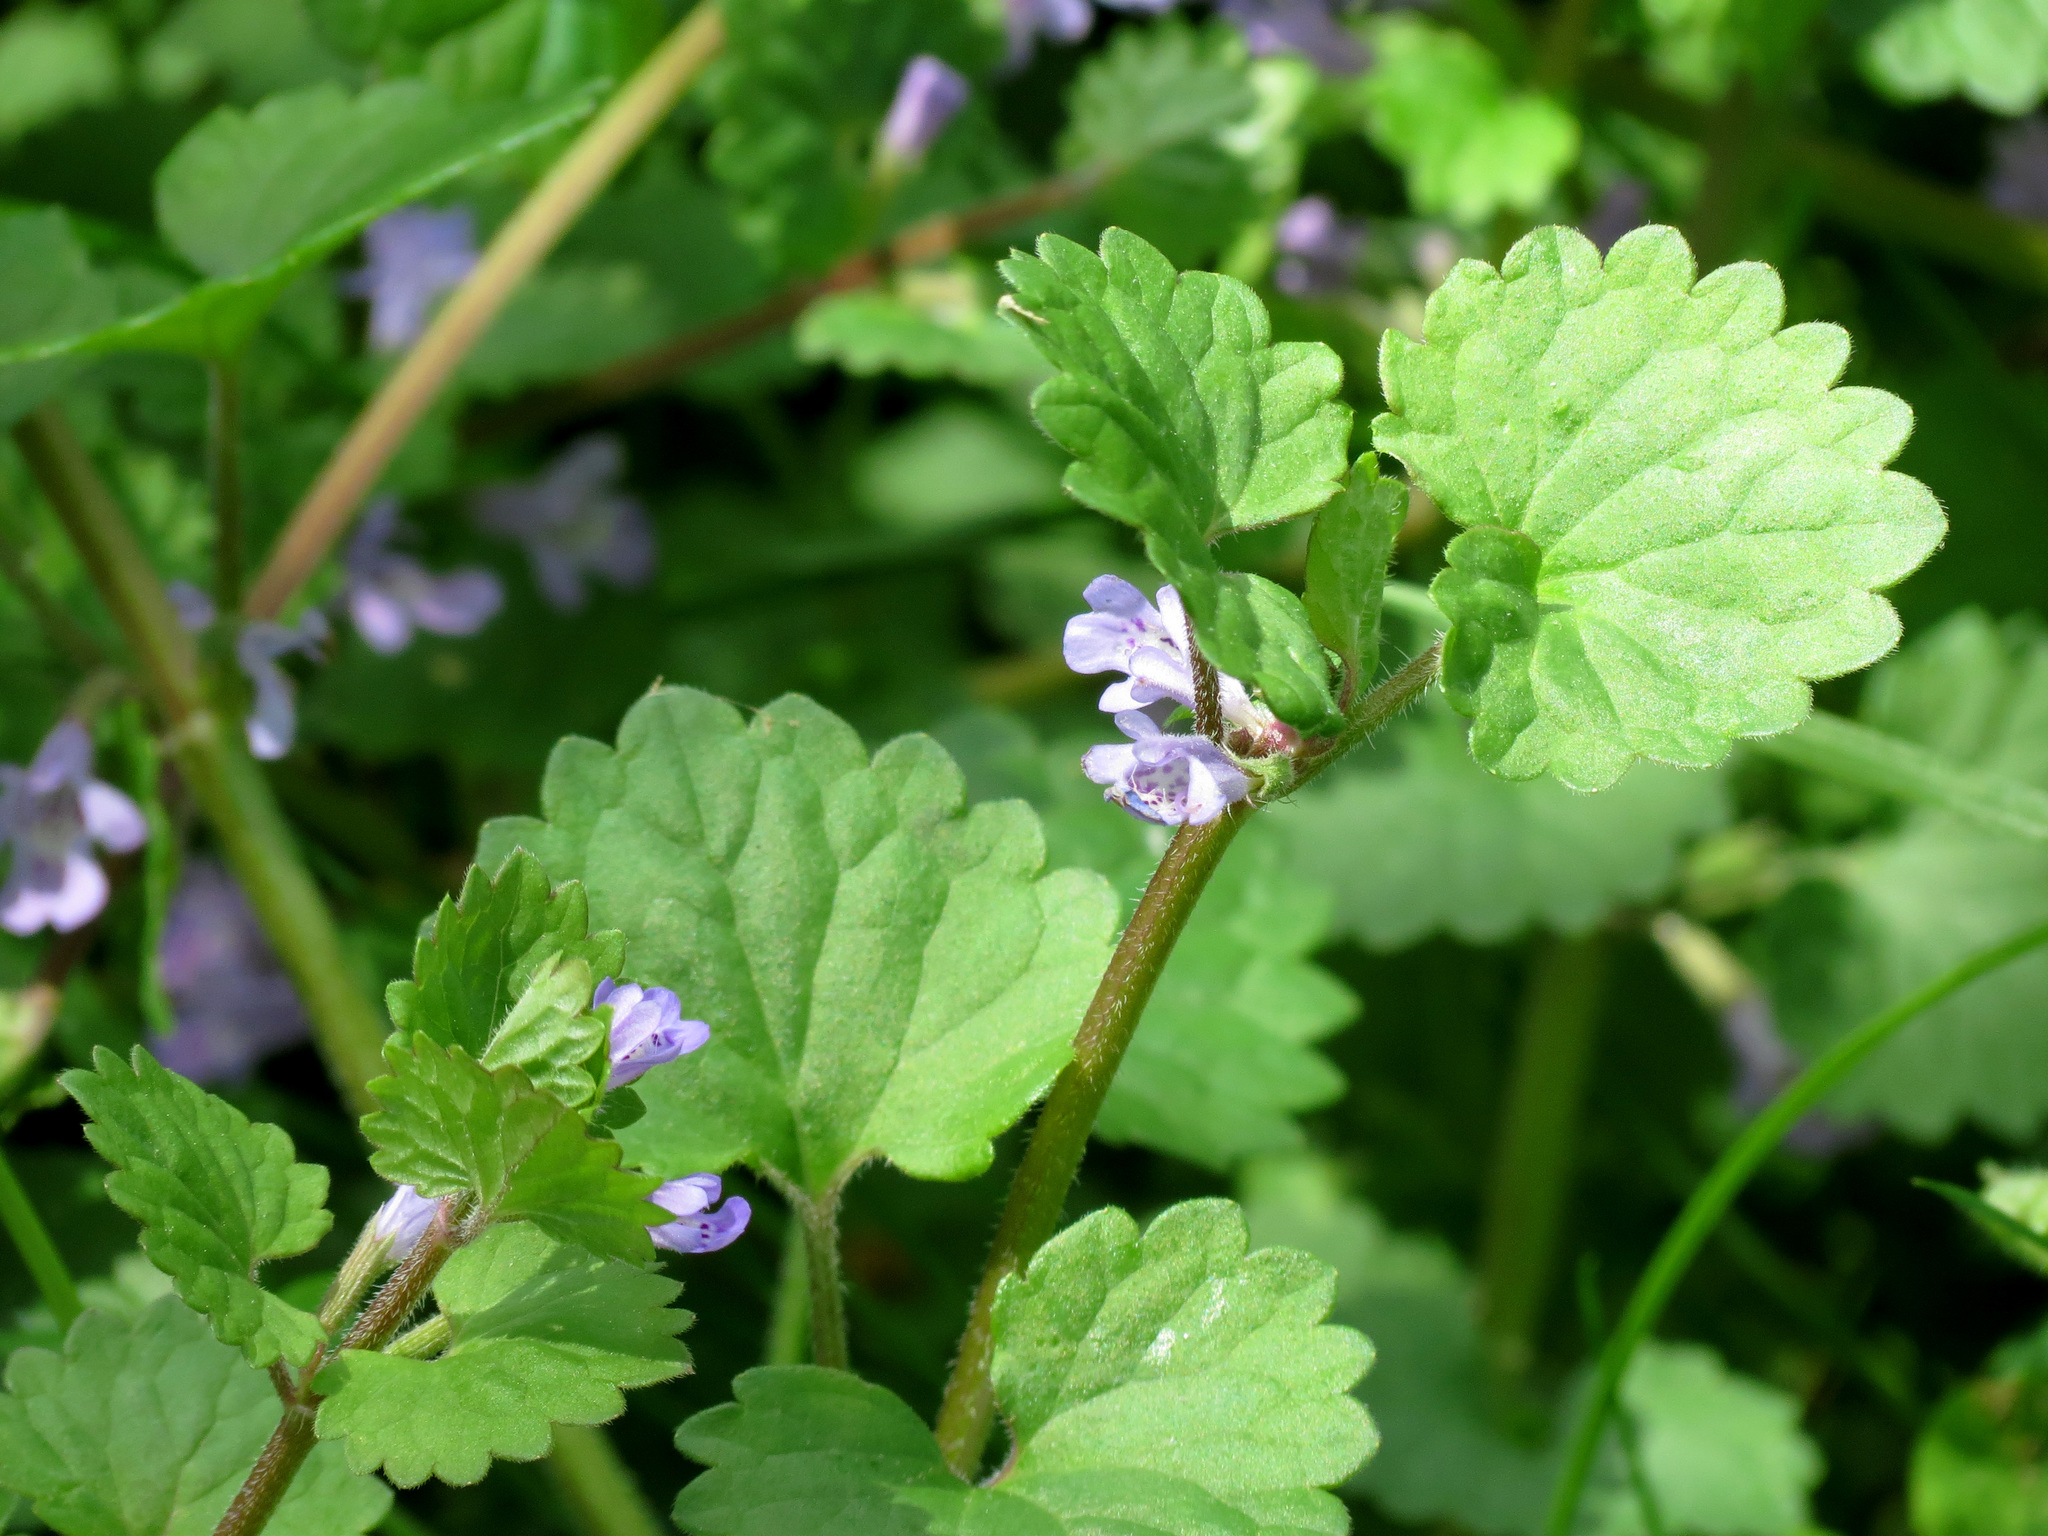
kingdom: Plantae
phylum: Tracheophyta
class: Magnoliopsida
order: Lamiales
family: Lamiaceae
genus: Glechoma
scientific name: Glechoma hederacea
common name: Ground ivy
